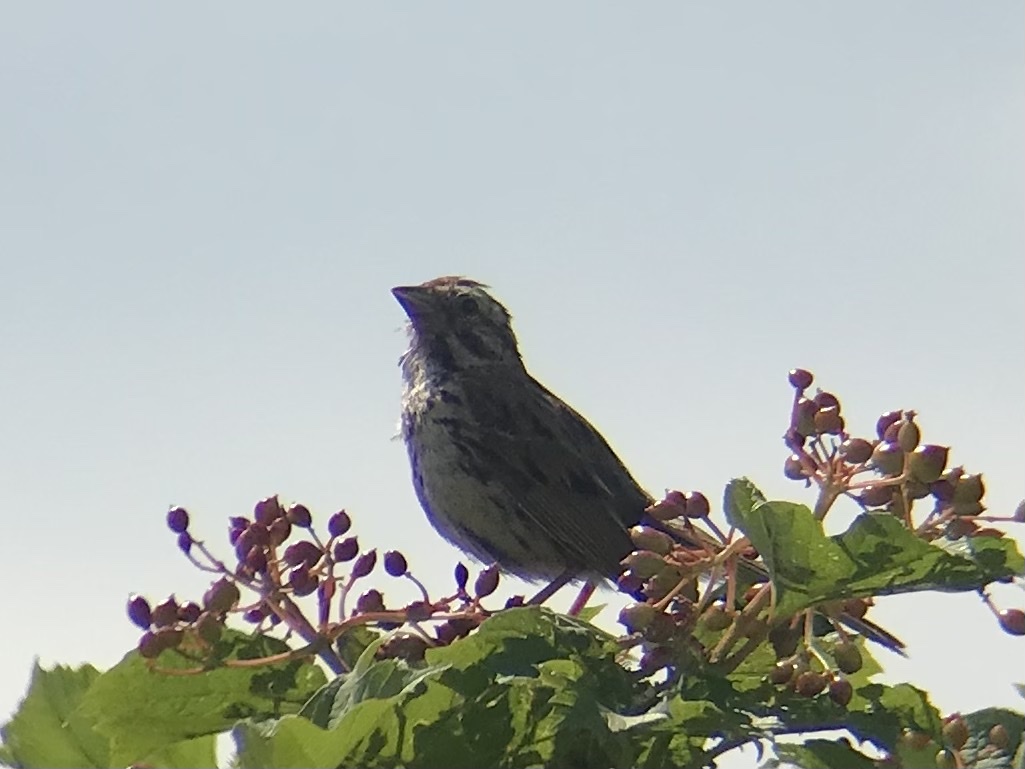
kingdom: Animalia
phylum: Chordata
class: Aves
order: Passeriformes
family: Passerellidae
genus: Melospiza
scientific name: Melospiza melodia
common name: Song sparrow
